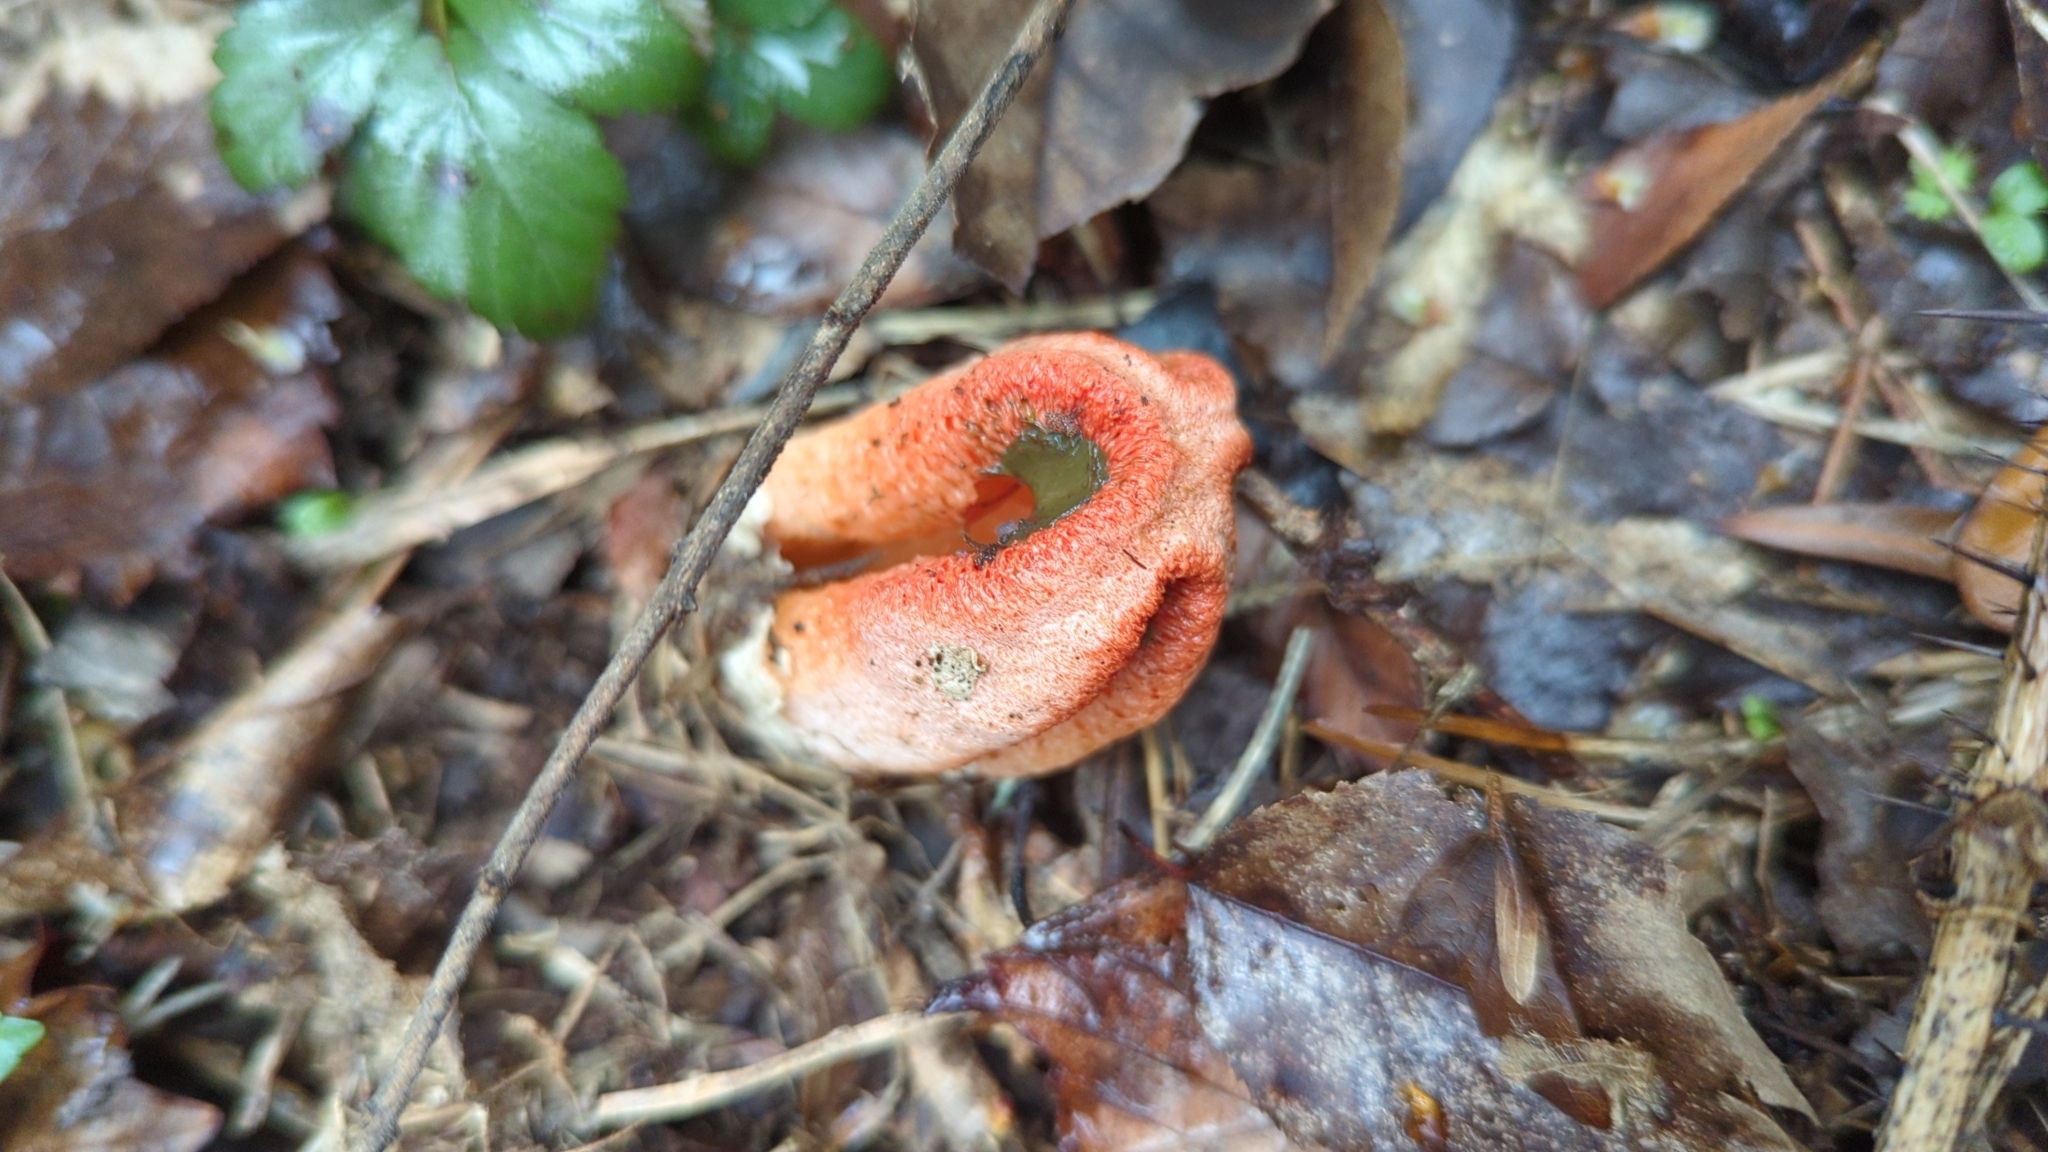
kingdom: Fungi
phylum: Basidiomycota
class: Agaricomycetes
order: Phallales
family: Phallaceae
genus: Clathrus
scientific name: Clathrus columnatus
